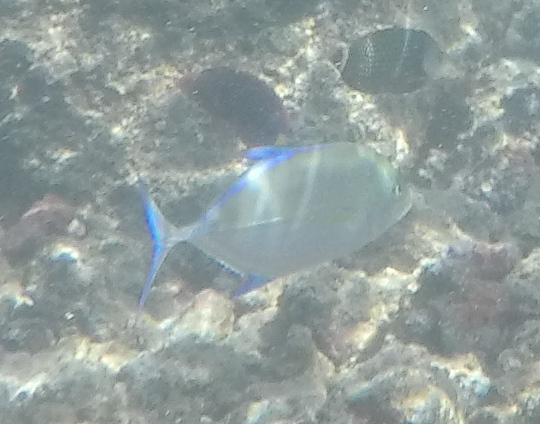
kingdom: Animalia
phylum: Chordata
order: Perciformes
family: Carangidae
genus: Caranx
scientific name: Caranx melampygus
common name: Bluefin trevally
